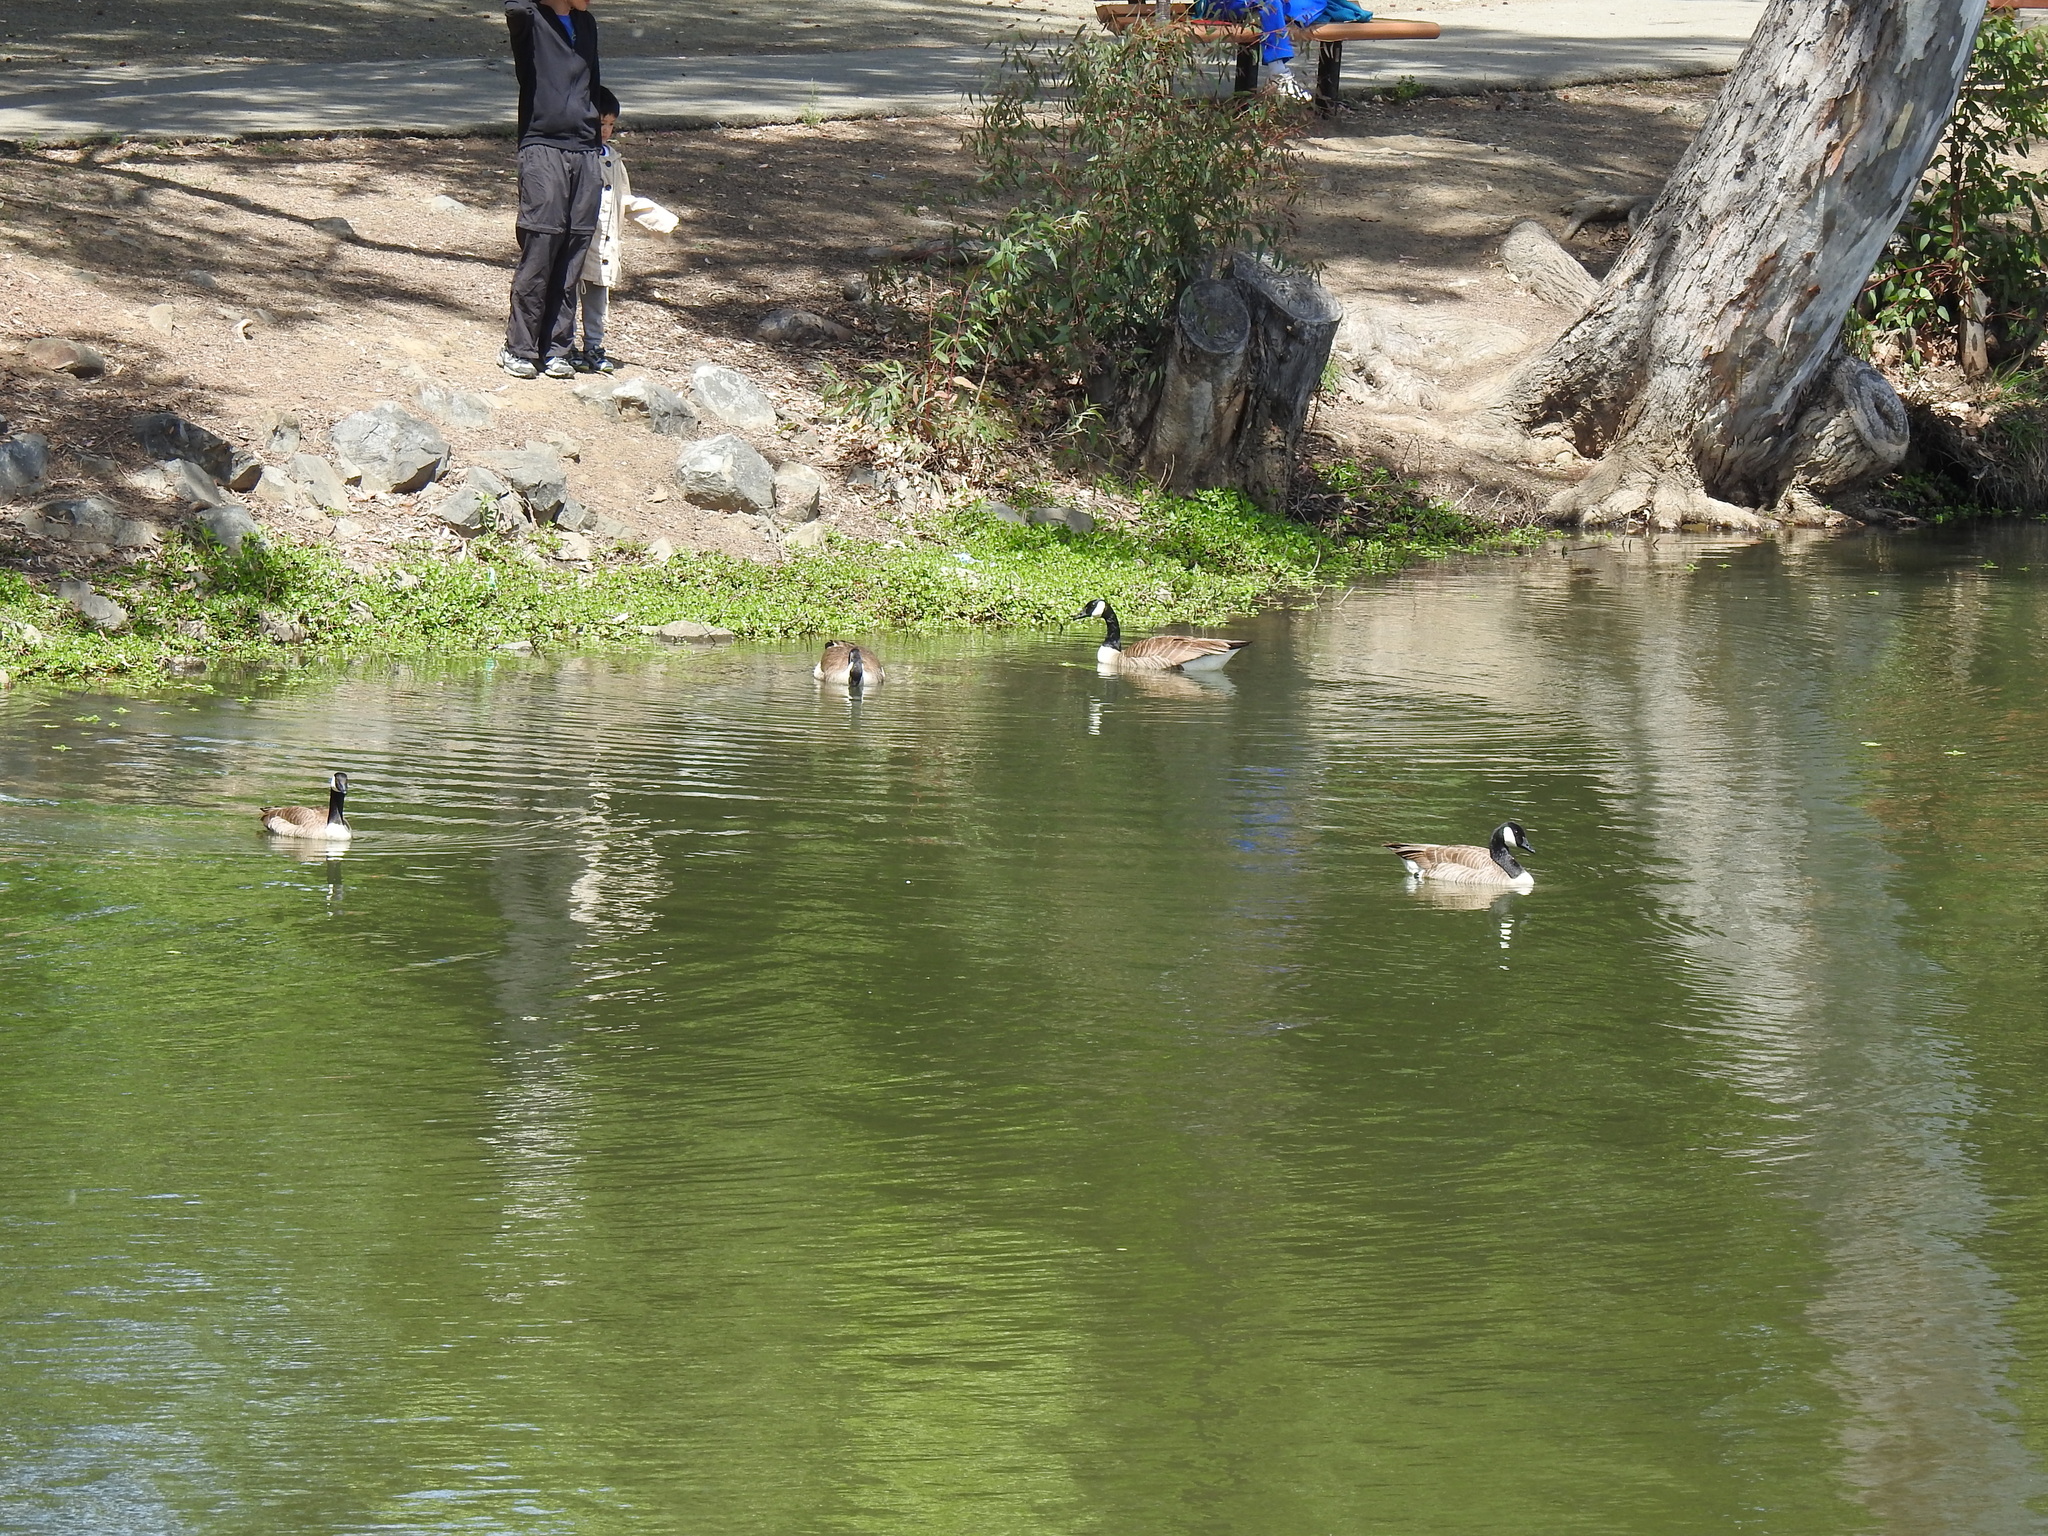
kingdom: Animalia
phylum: Chordata
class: Aves
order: Anseriformes
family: Anatidae
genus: Branta
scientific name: Branta canadensis
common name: Canada goose
